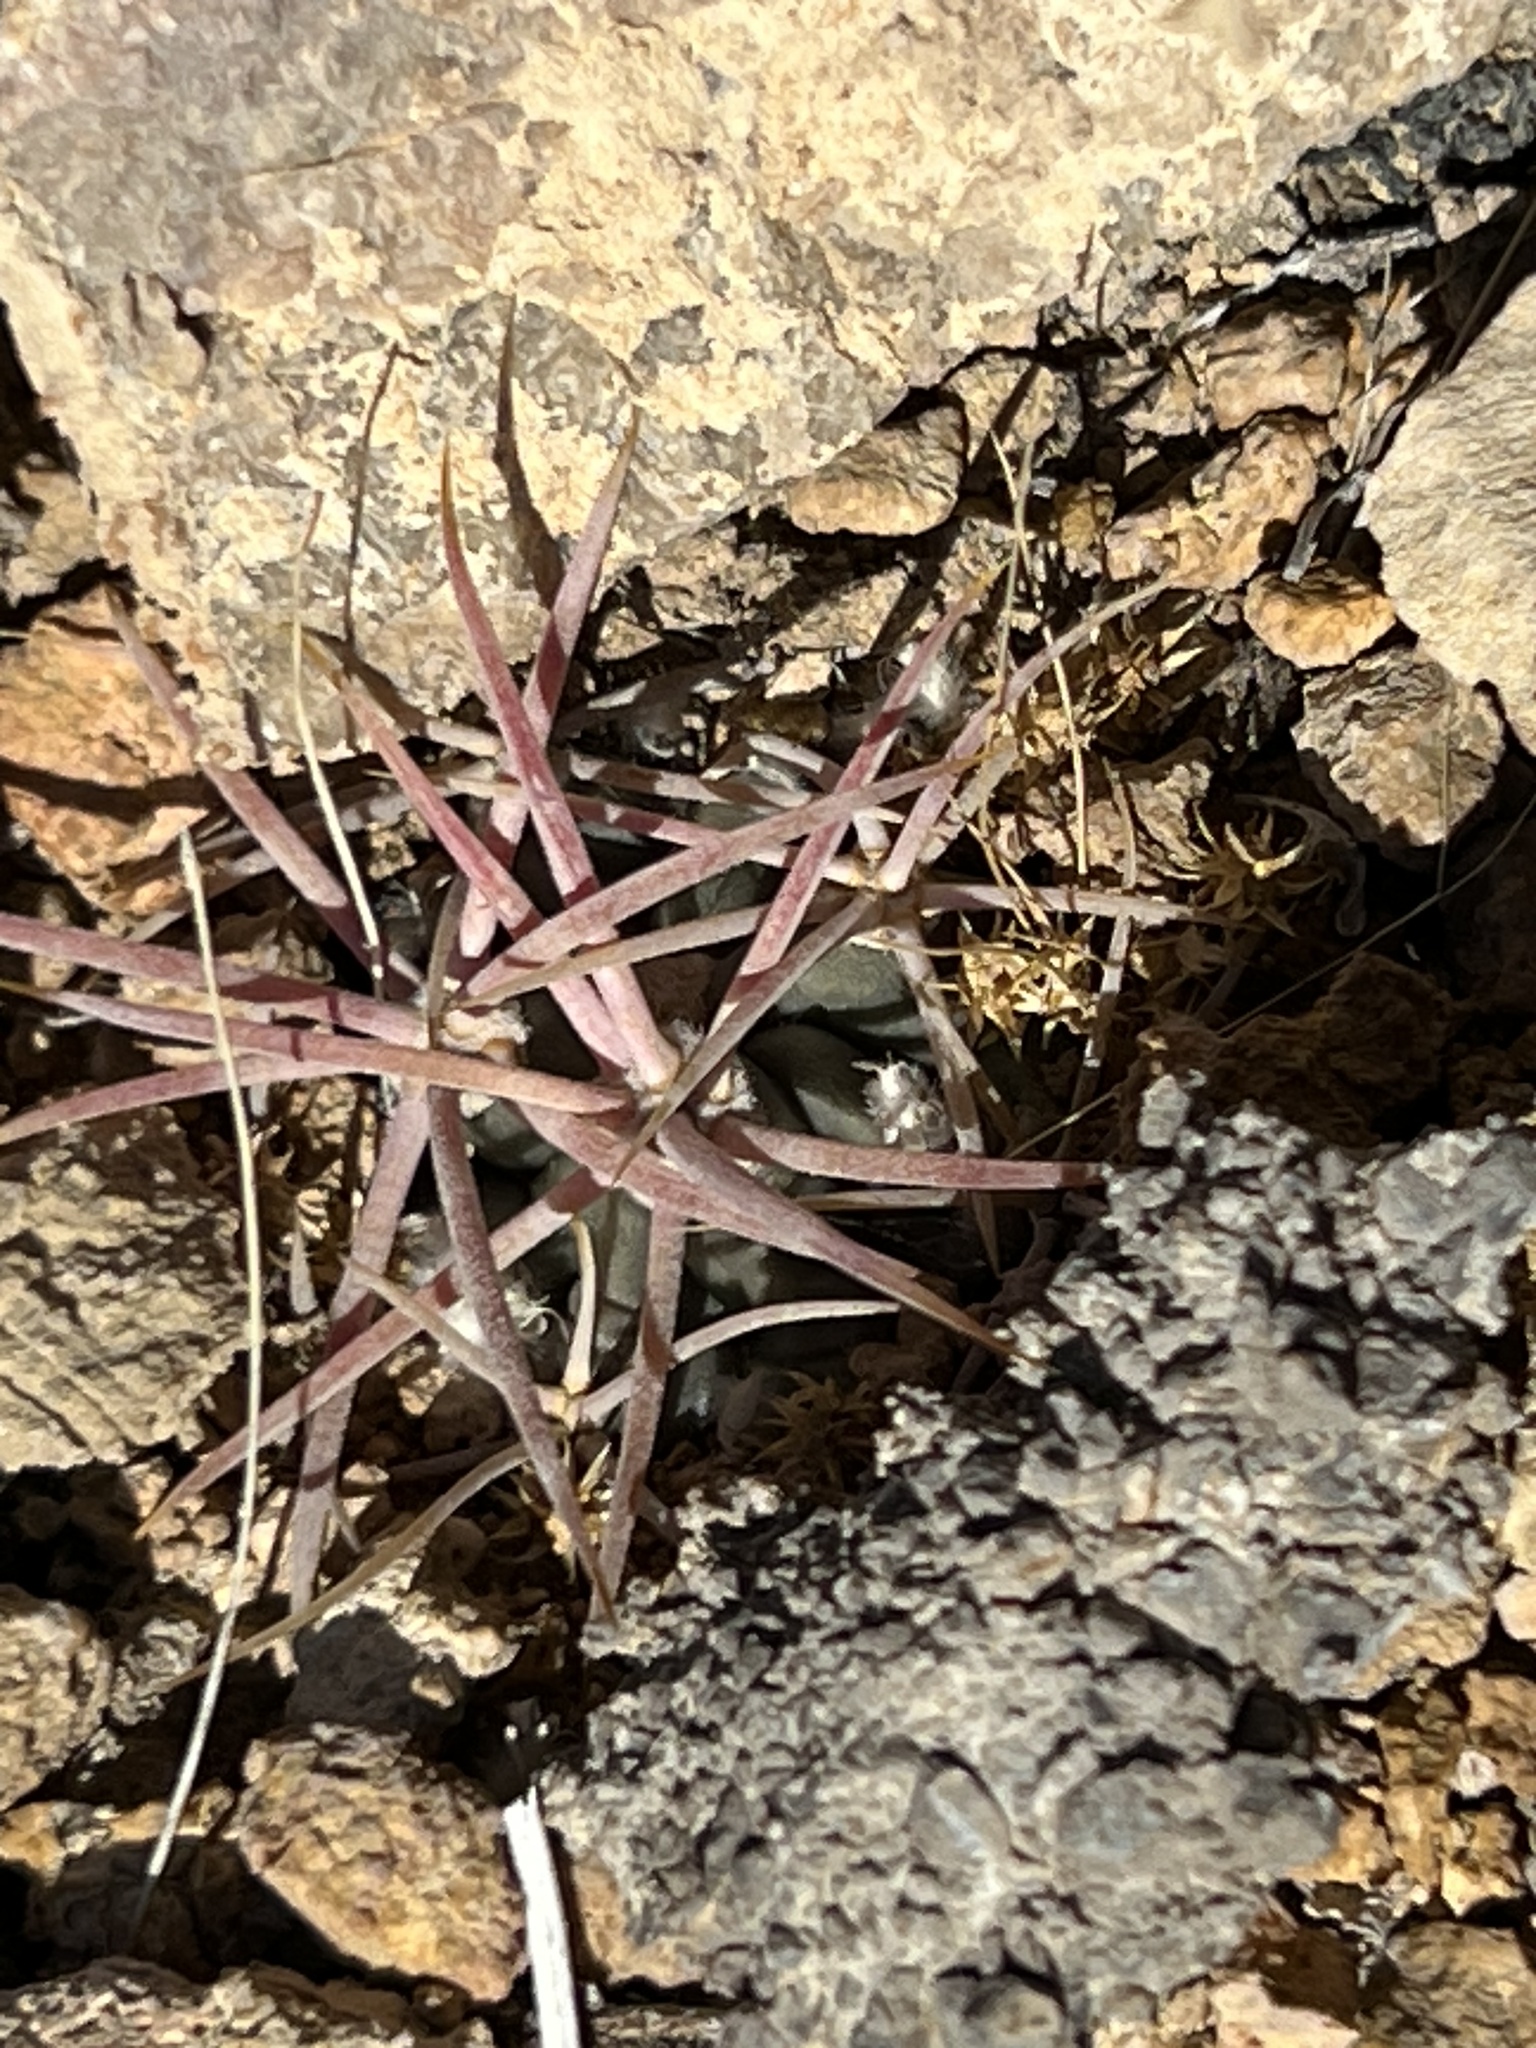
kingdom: Plantae
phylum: Tracheophyta
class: Magnoliopsida
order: Caryophyllales
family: Cactaceae
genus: Echinocactus
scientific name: Echinocactus polycephalus
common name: Cottontop cactus
